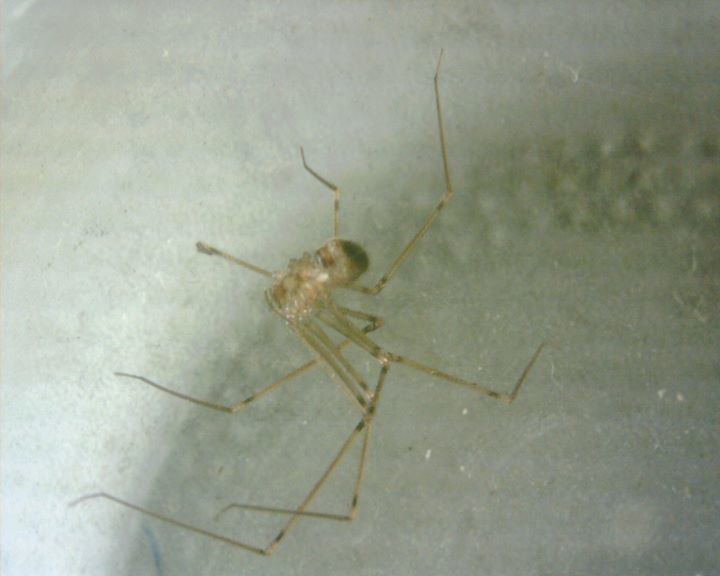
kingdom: Animalia
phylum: Arthropoda
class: Arachnida
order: Araneae
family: Pholcidae
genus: Physocyclus
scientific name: Physocyclus globosus
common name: Cellar spiders
